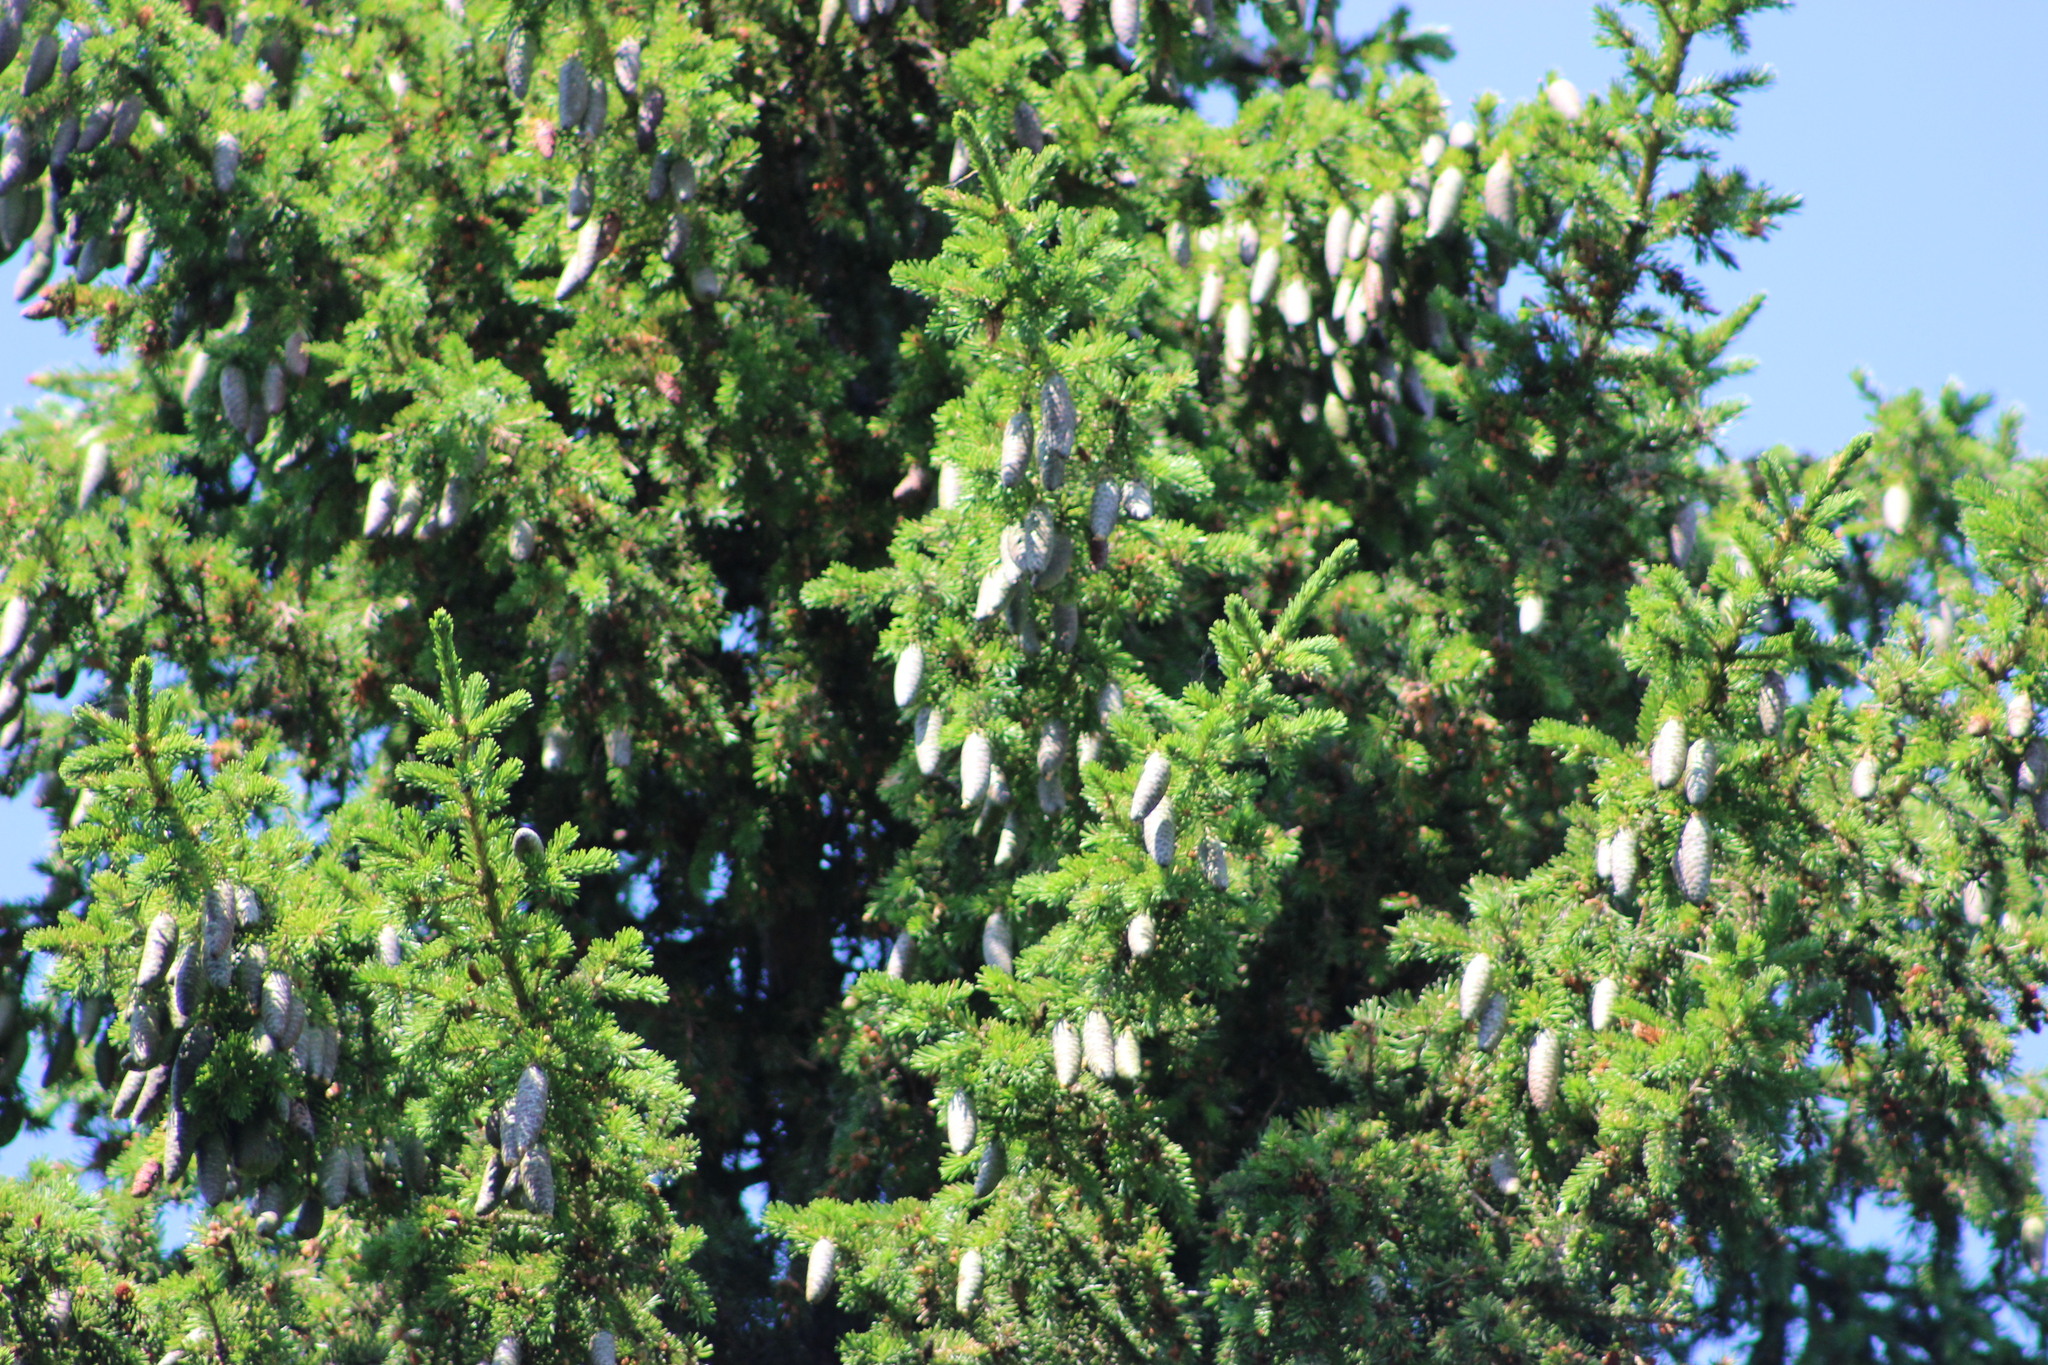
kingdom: Plantae
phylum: Tracheophyta
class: Pinopsida
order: Pinales
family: Pinaceae
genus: Picea
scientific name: Picea obovata
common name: Siberian spruce
